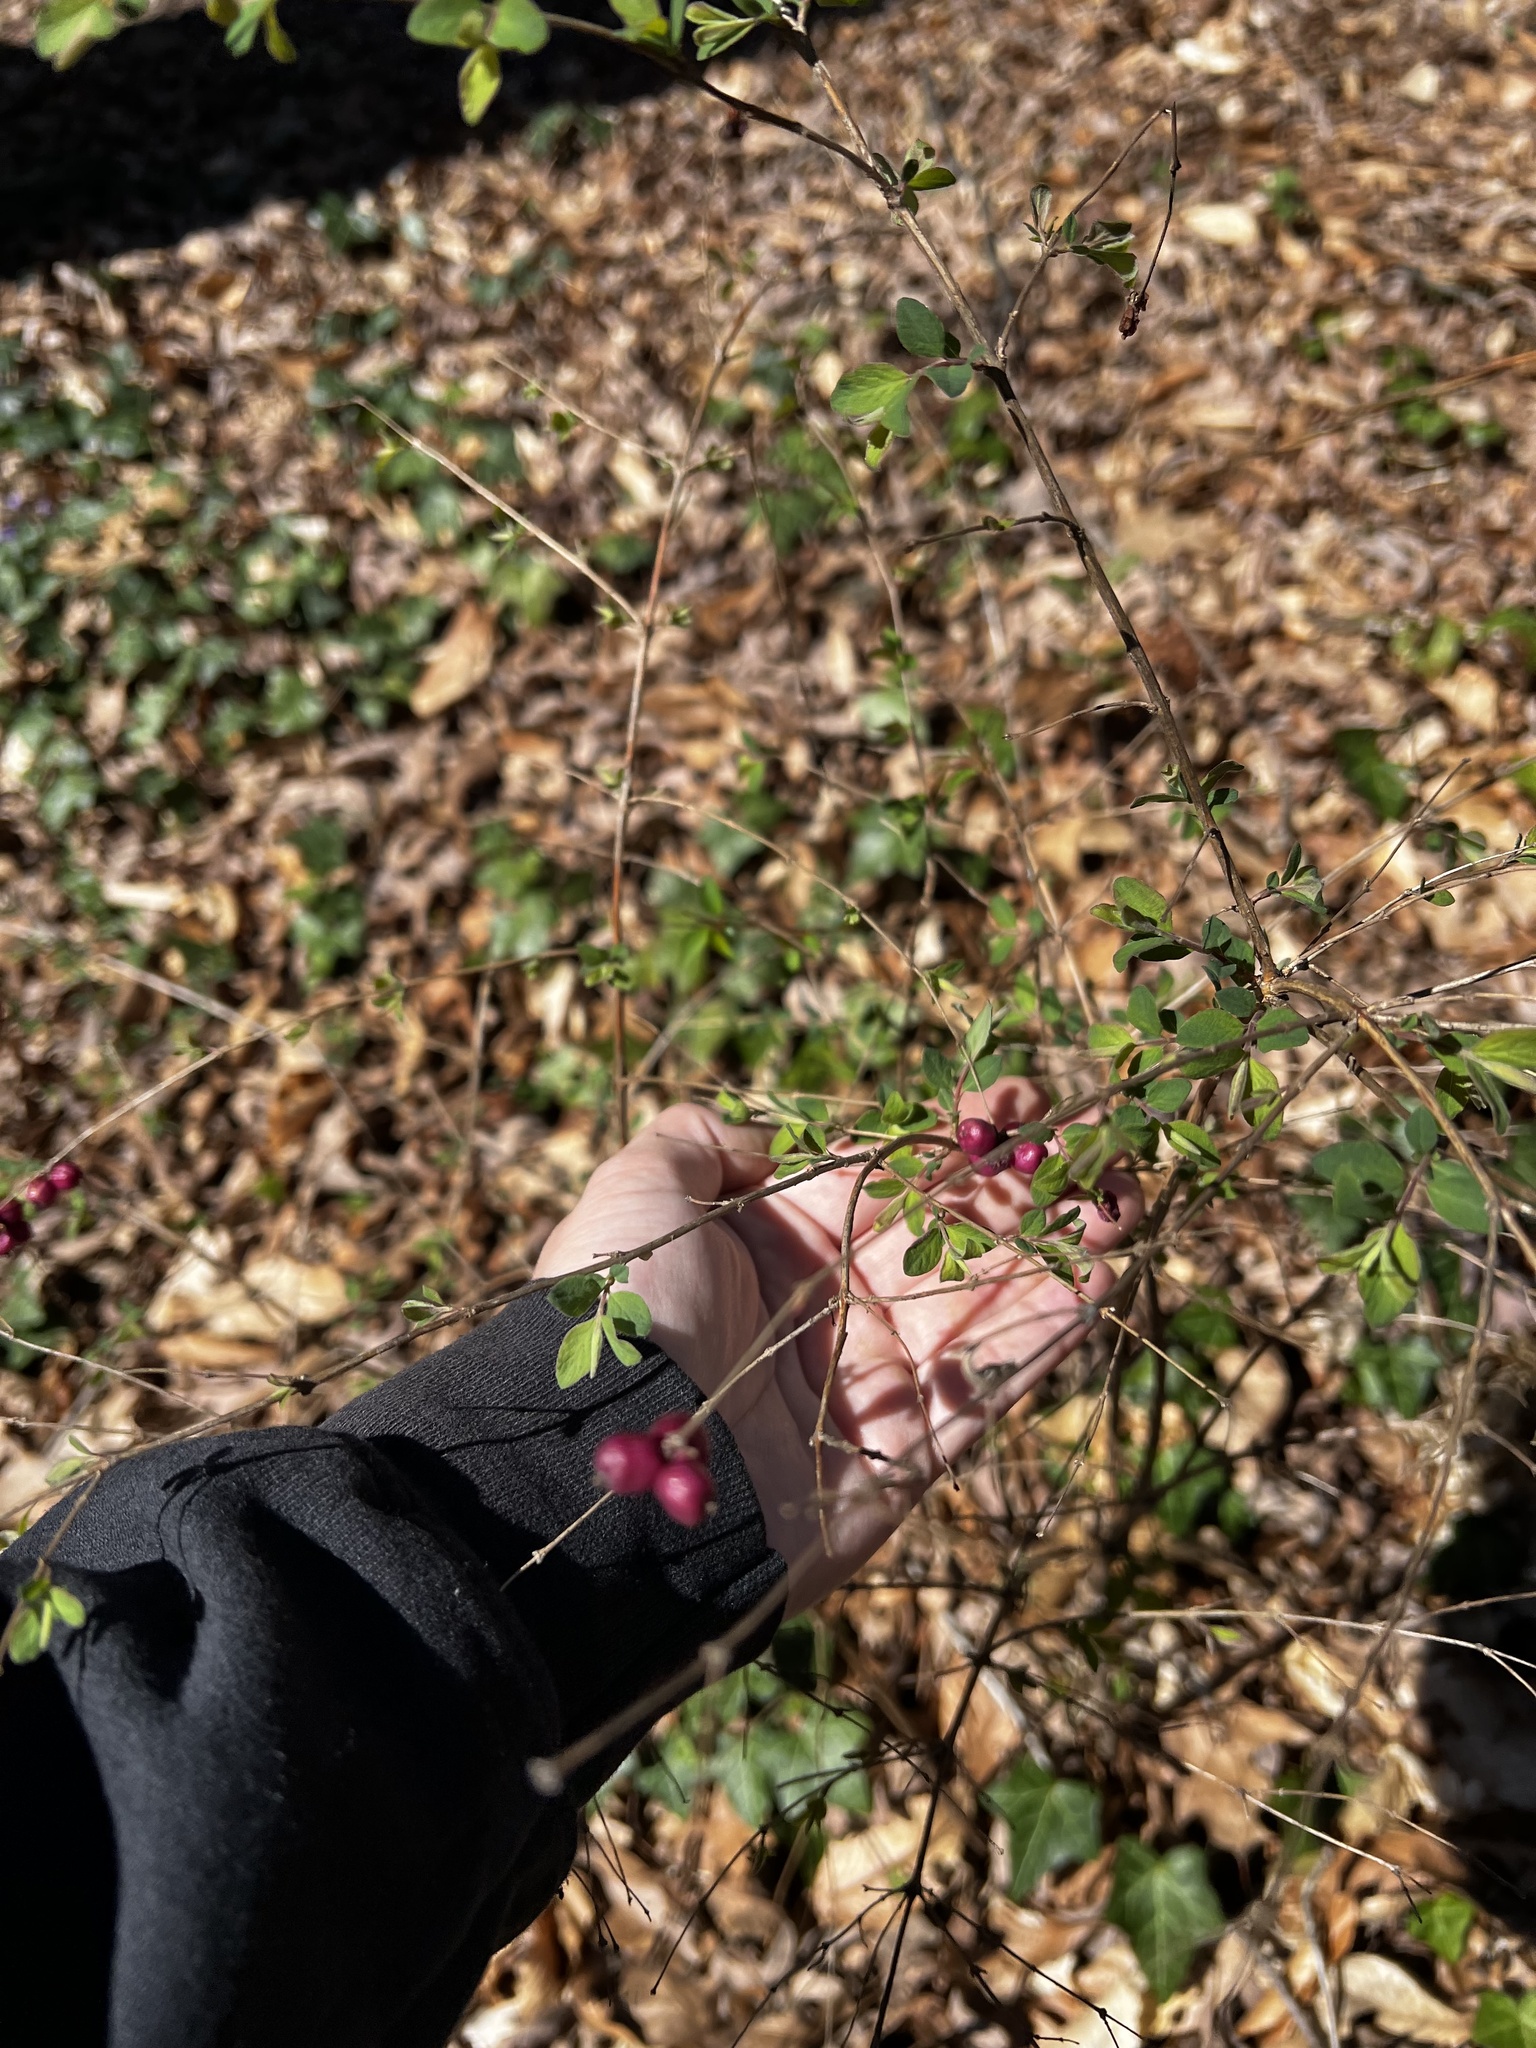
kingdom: Plantae
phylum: Tracheophyta
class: Magnoliopsida
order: Dipsacales
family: Caprifoliaceae
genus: Symphoricarpos
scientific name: Symphoricarpos orbiculatus
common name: Coralberry
